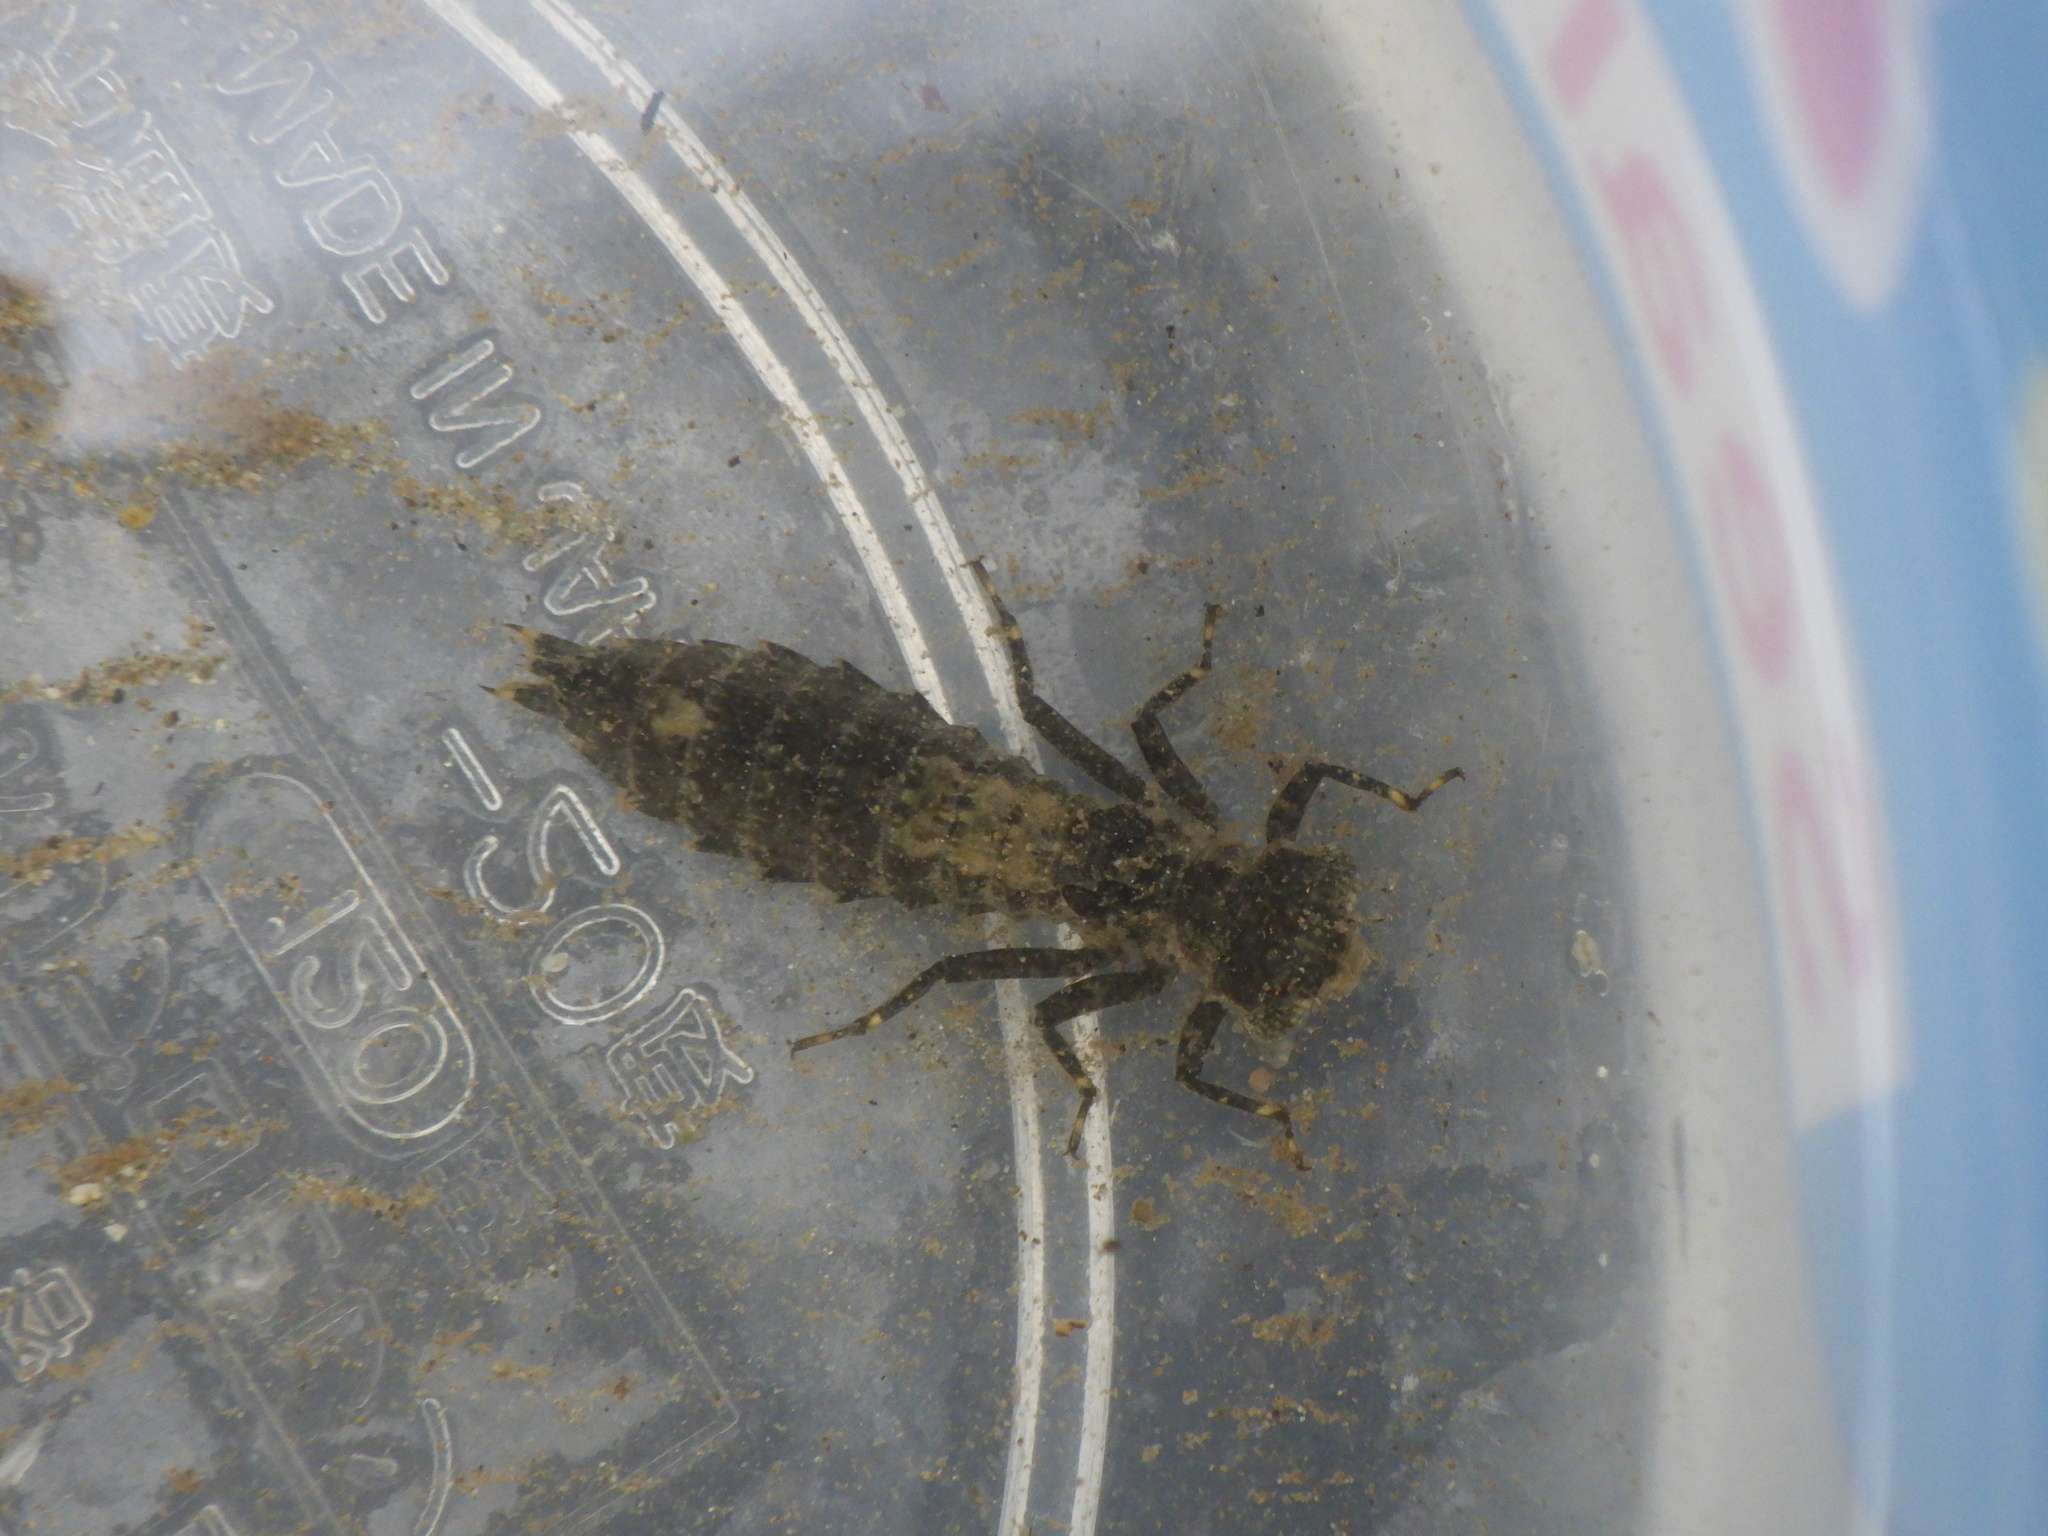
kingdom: Animalia
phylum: Arthropoda
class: Insecta
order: Odonata
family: Aeshnidae
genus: Boyeria
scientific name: Boyeria maclachlani
